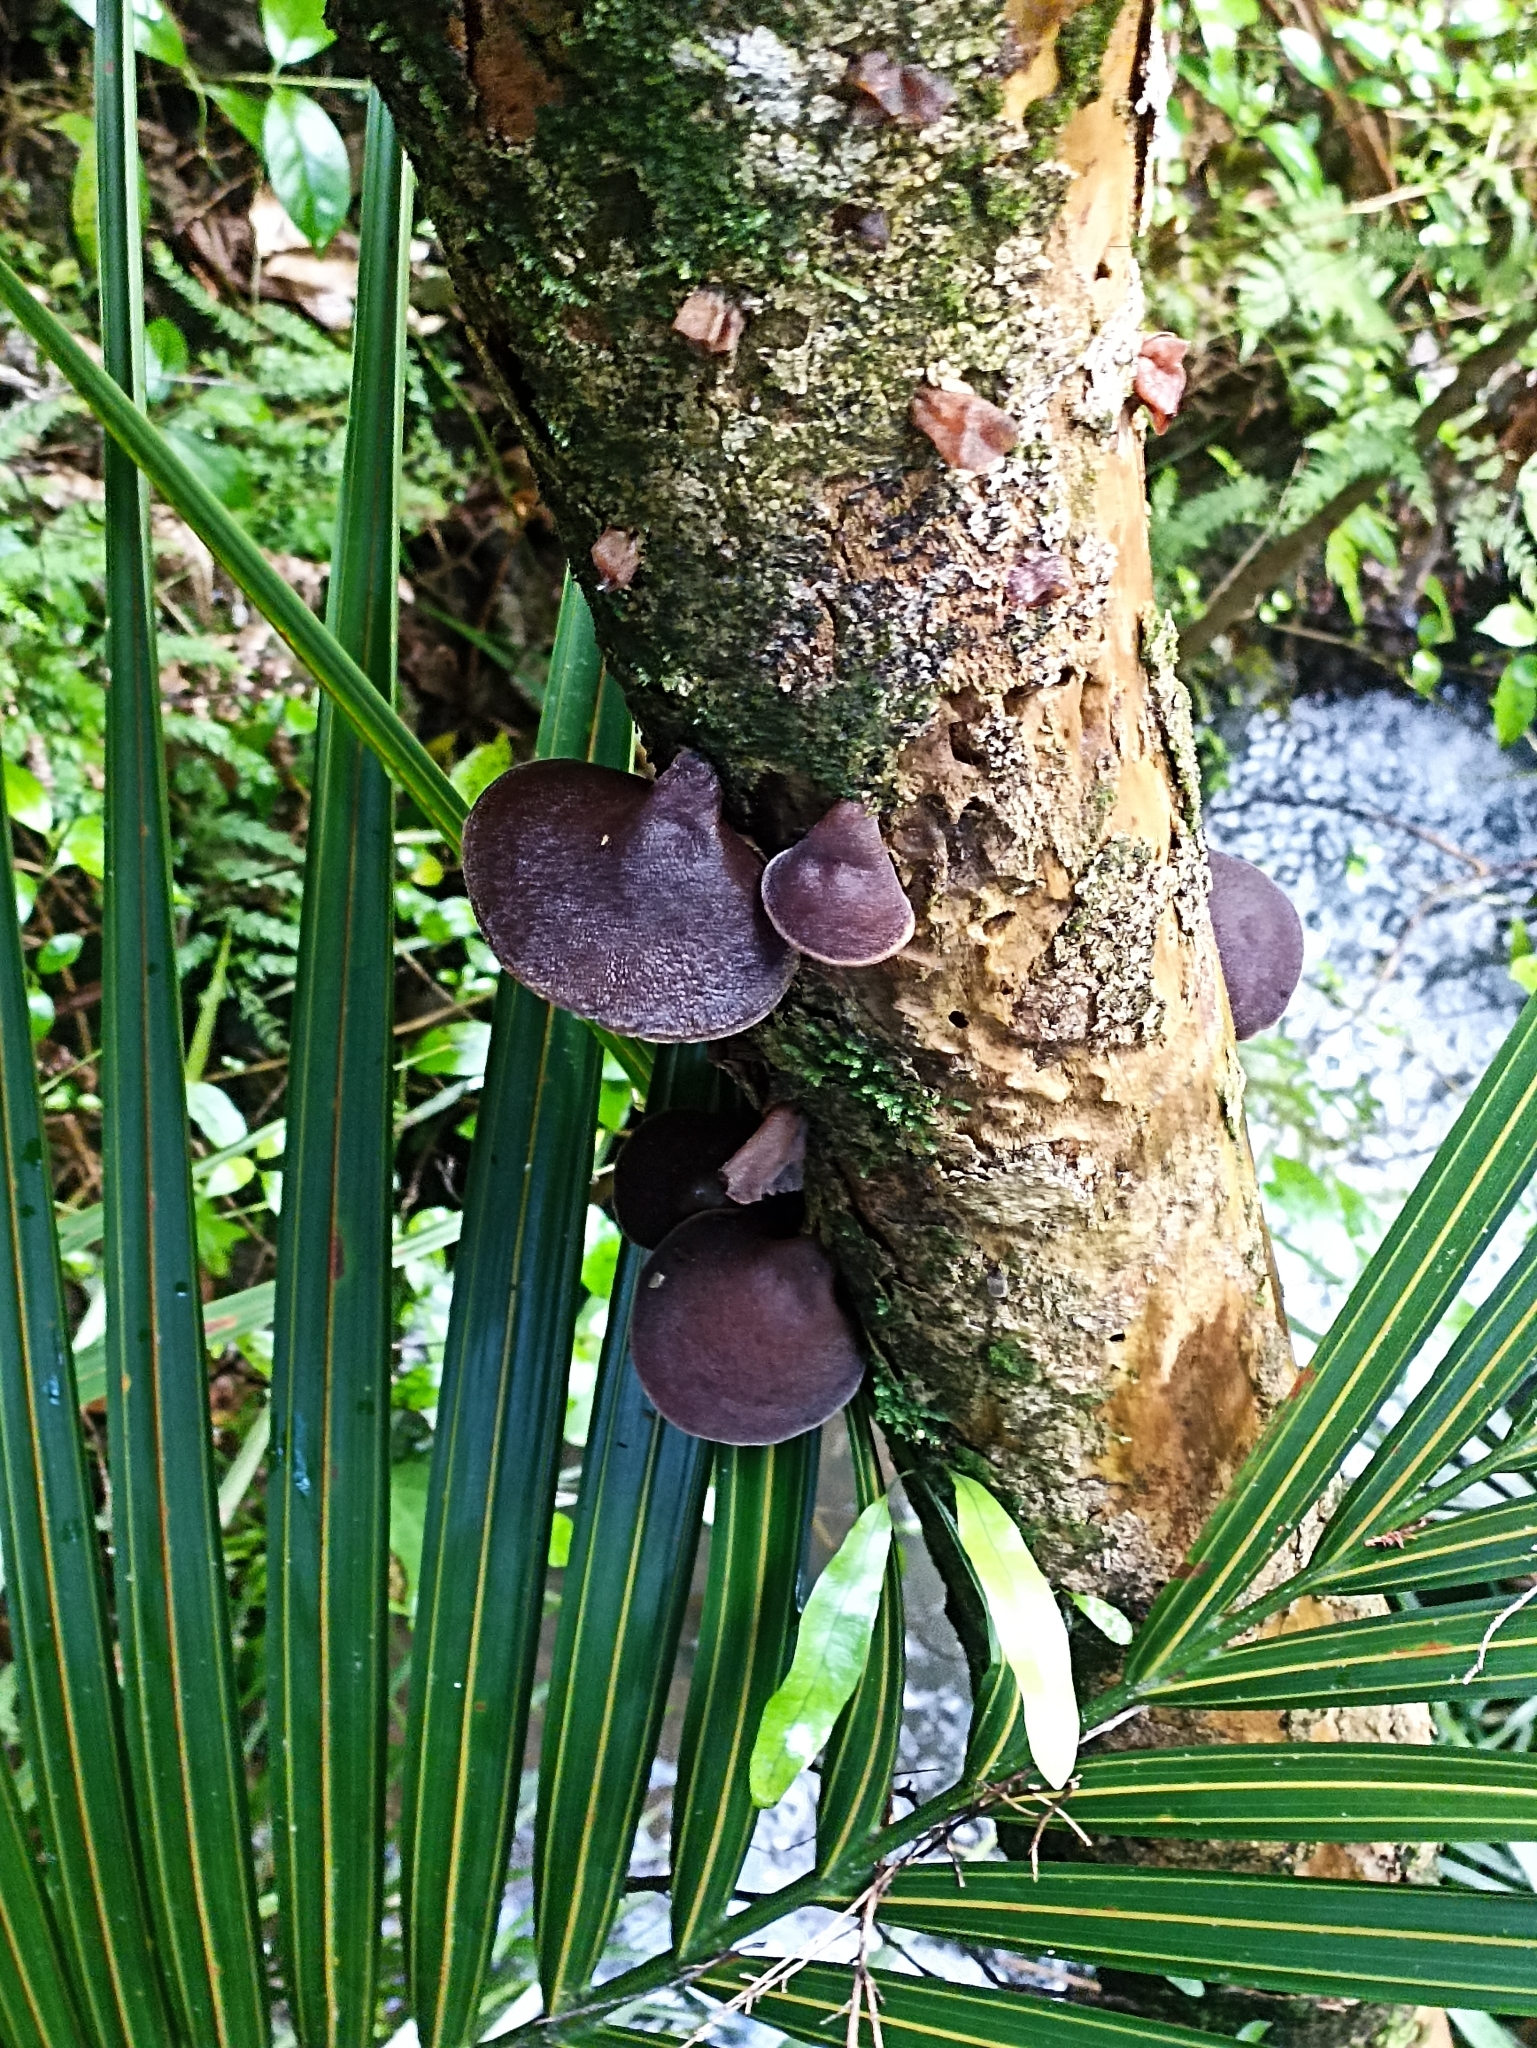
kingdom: Fungi
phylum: Basidiomycota
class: Agaricomycetes
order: Auriculariales
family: Auriculariaceae
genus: Auricularia
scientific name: Auricularia cornea
